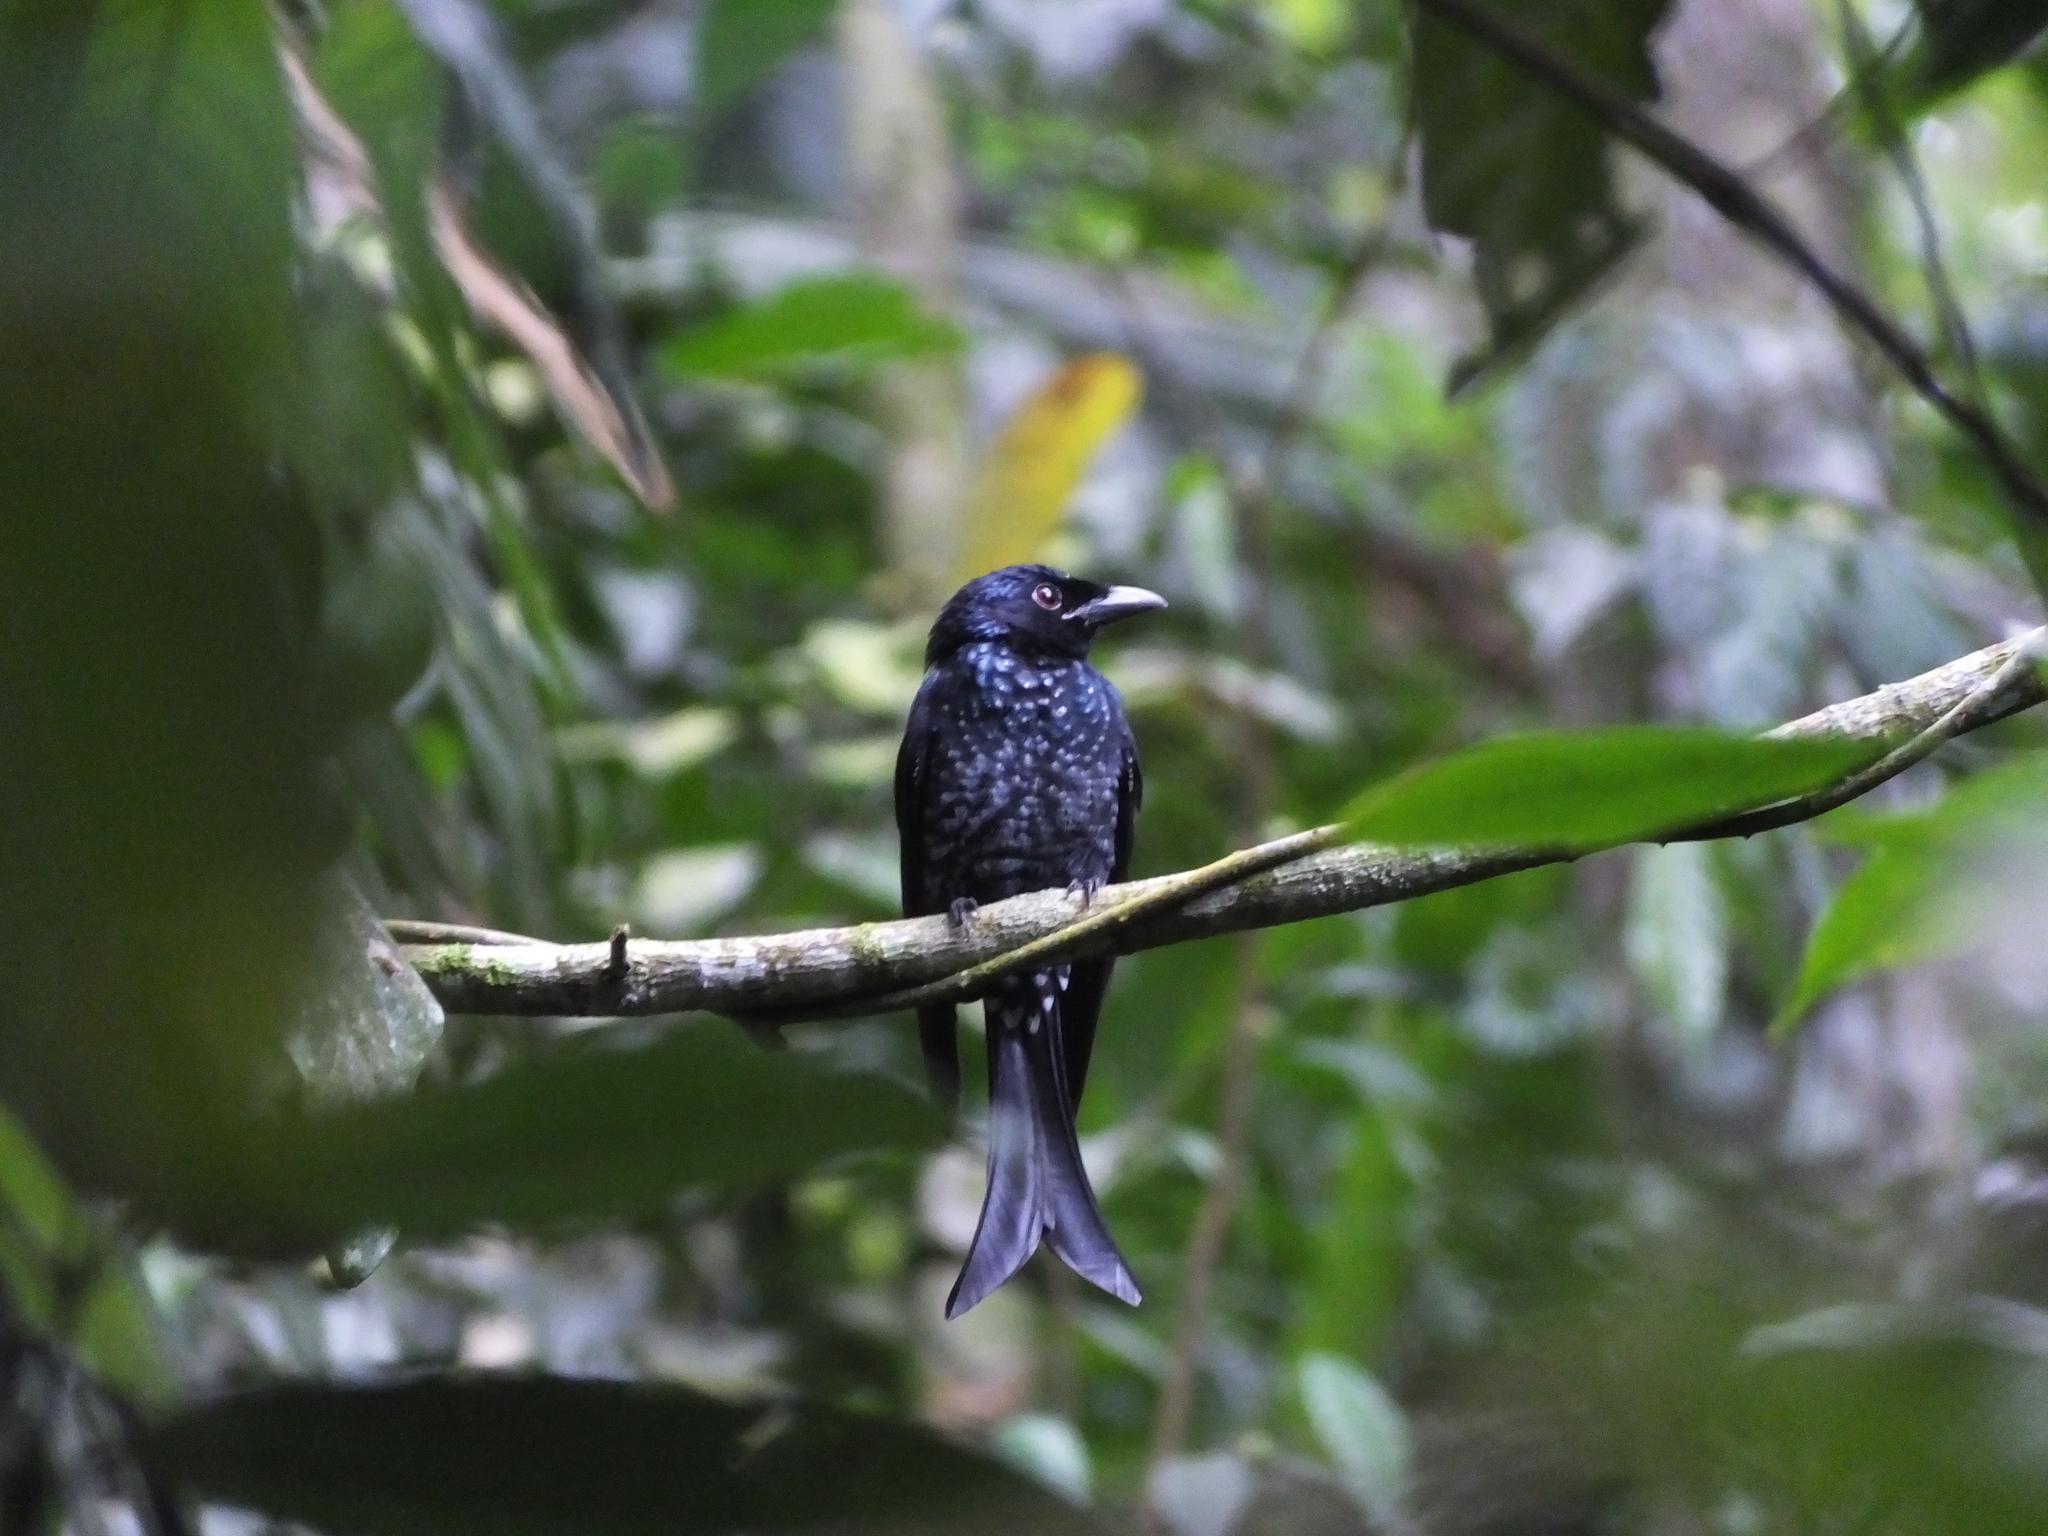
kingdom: Animalia
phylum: Chordata
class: Aves
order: Passeriformes
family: Dicruridae
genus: Dicrurus
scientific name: Dicrurus annectens
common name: Crow-billed drongo
